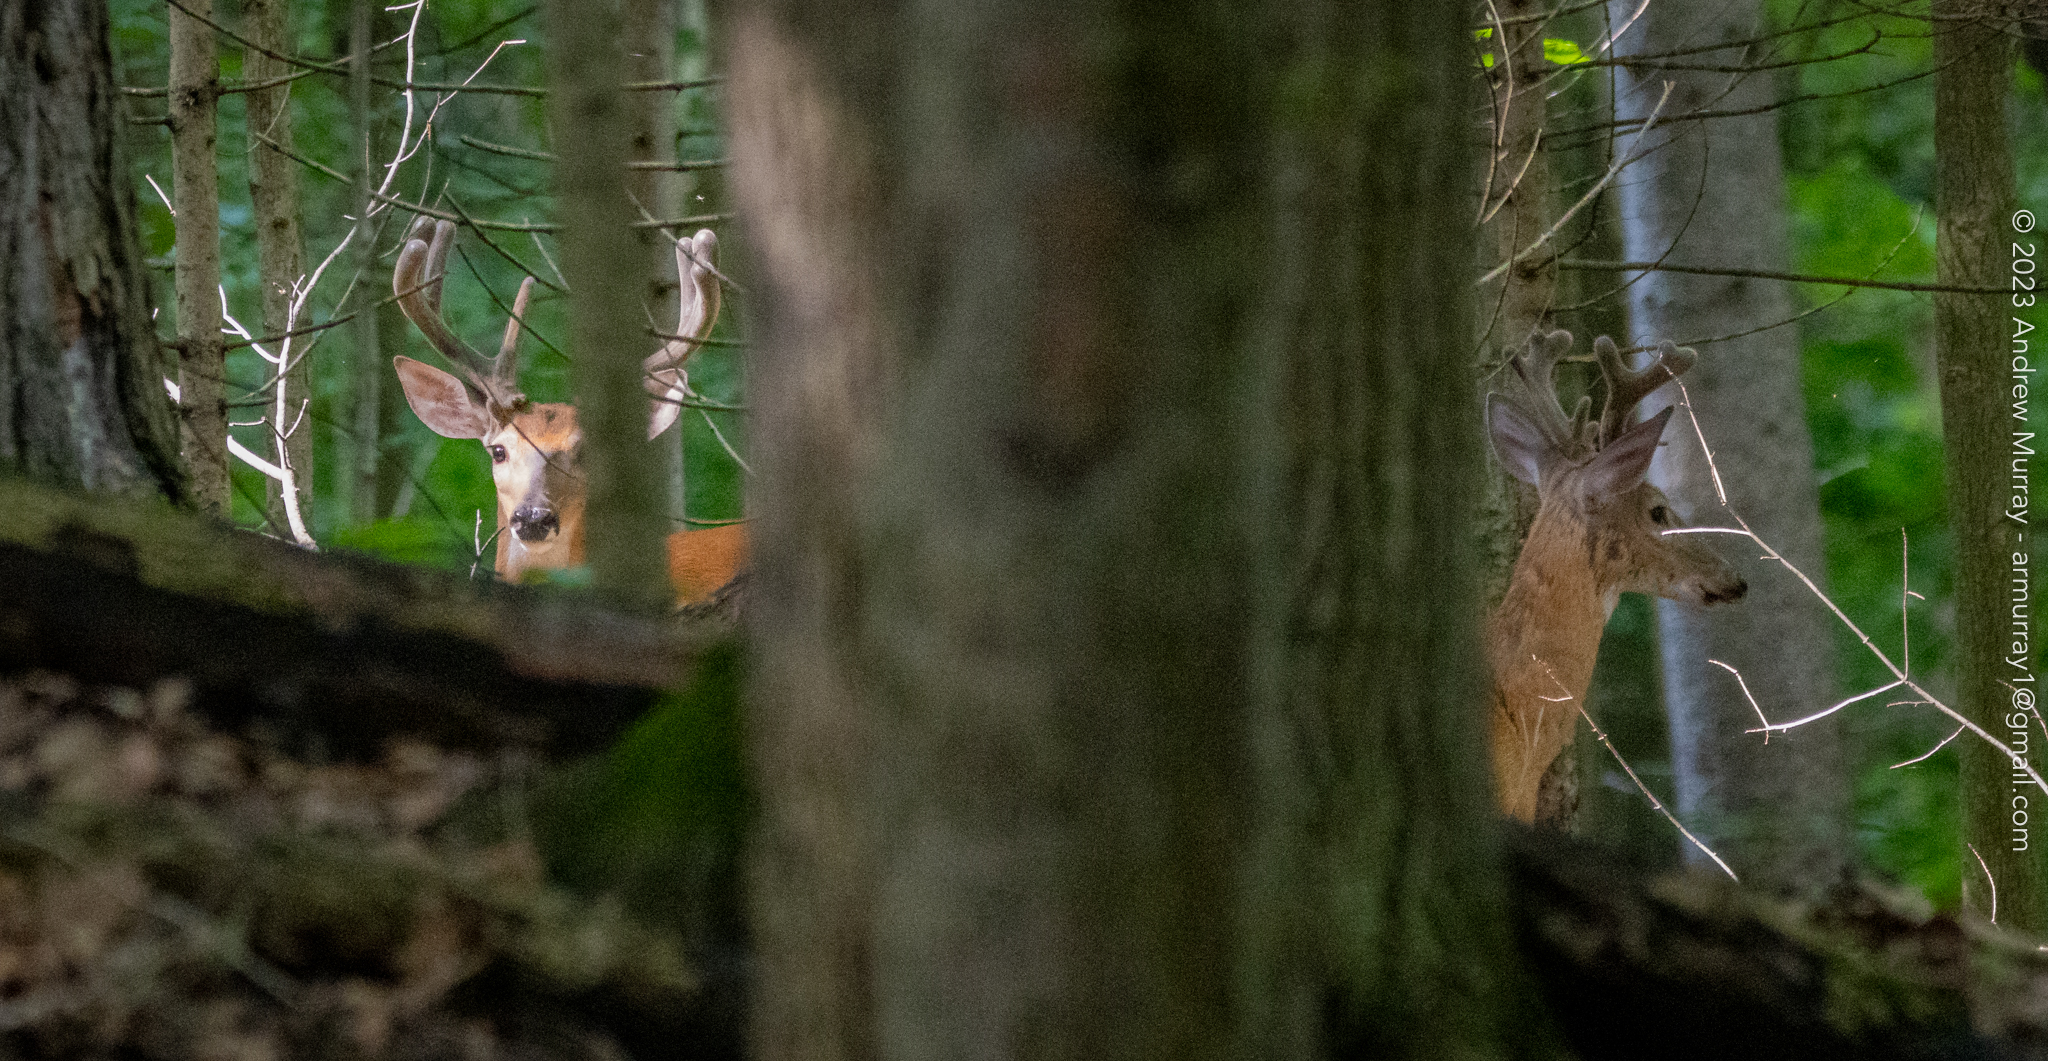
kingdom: Animalia
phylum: Chordata
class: Mammalia
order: Artiodactyla
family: Cervidae
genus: Odocoileus
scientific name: Odocoileus virginianus
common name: White-tailed deer
